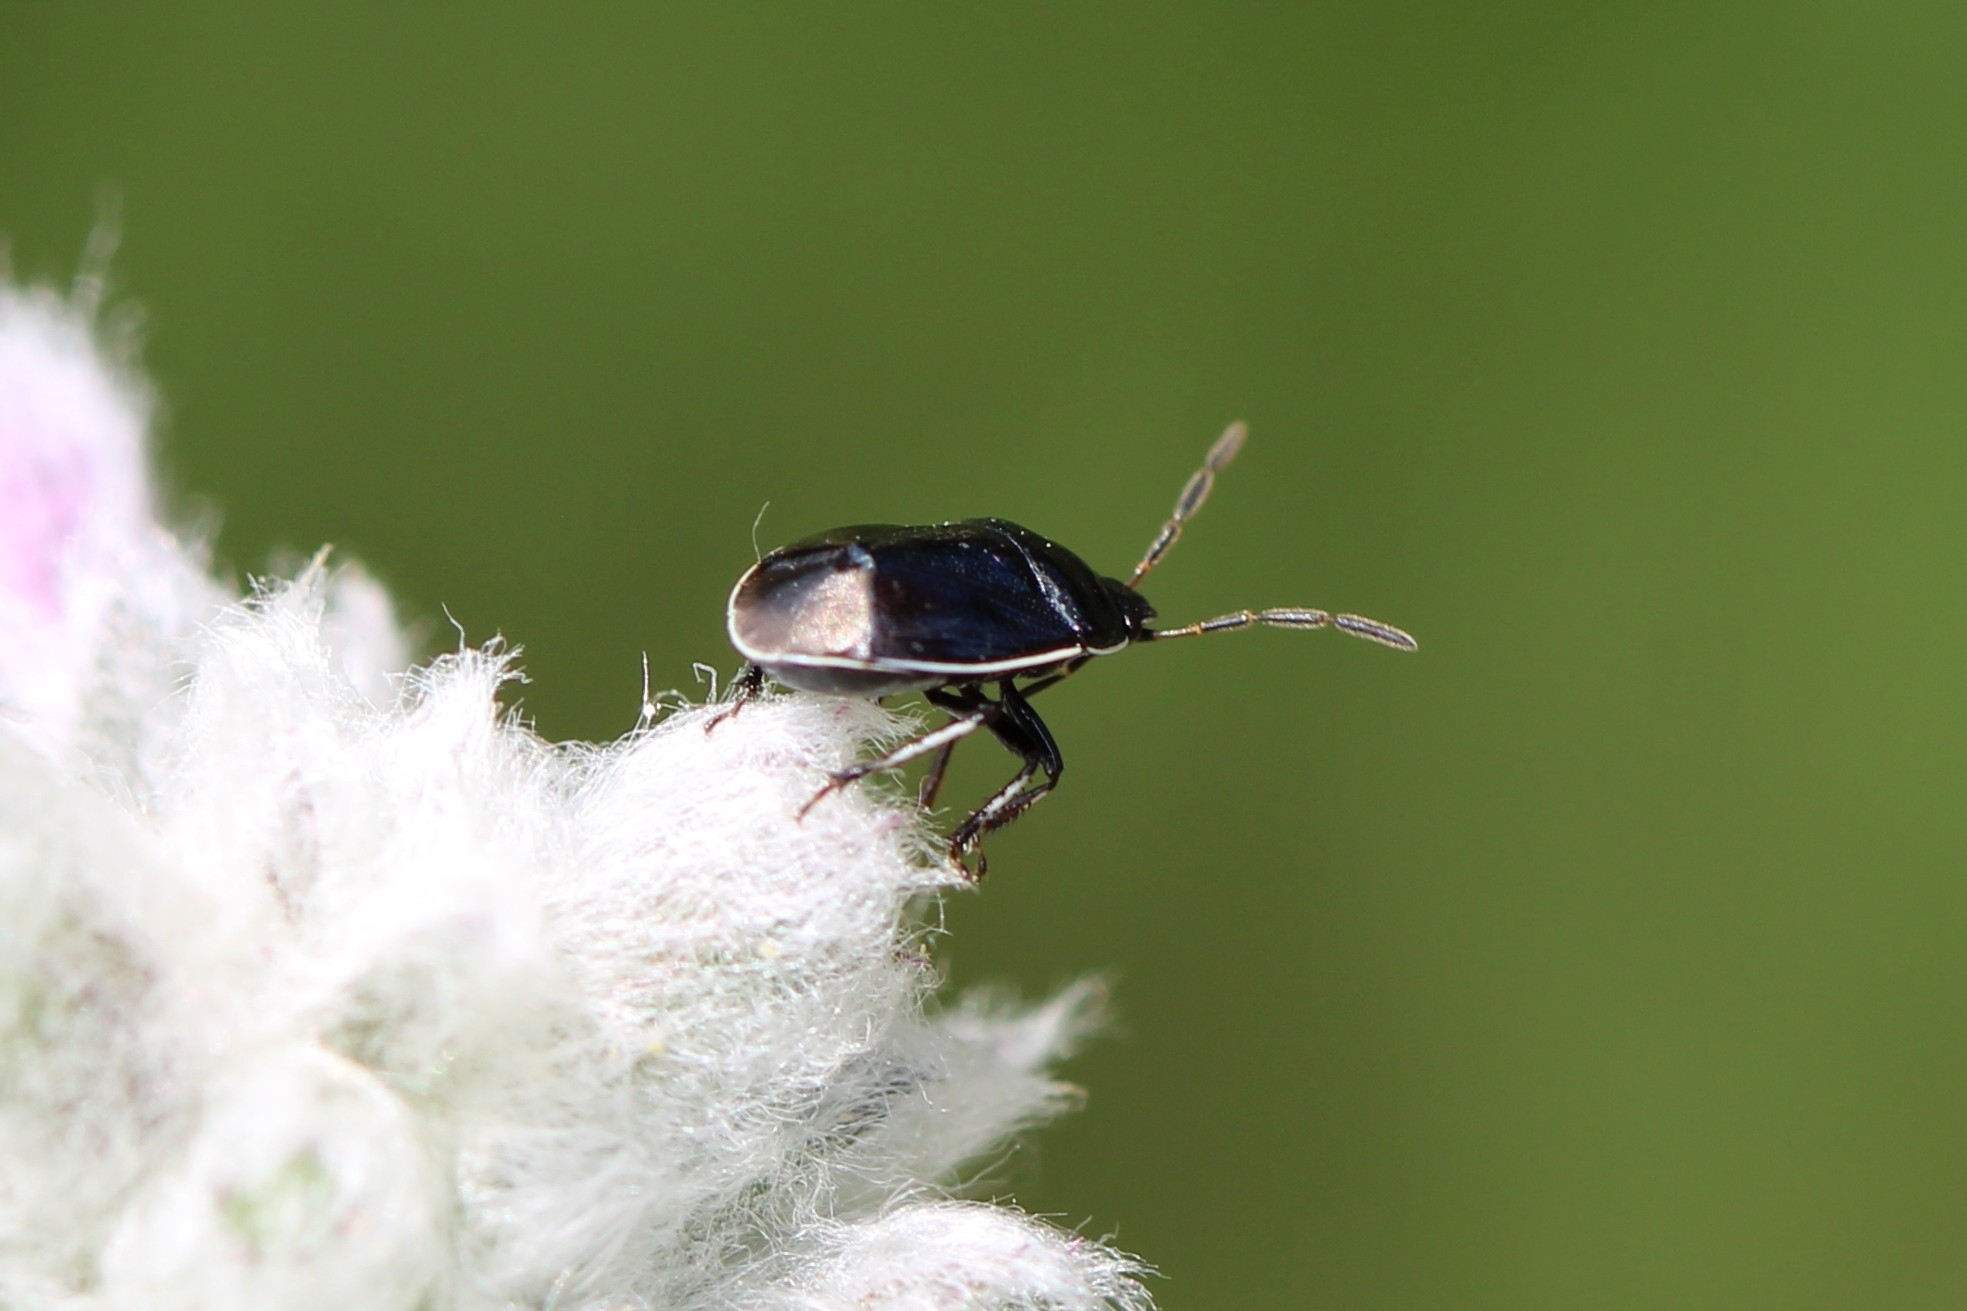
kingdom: Animalia
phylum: Arthropoda
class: Insecta
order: Hemiptera
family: Cydnidae
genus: Sehirus
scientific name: Sehirus cinctus
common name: White-margined burrower bug
